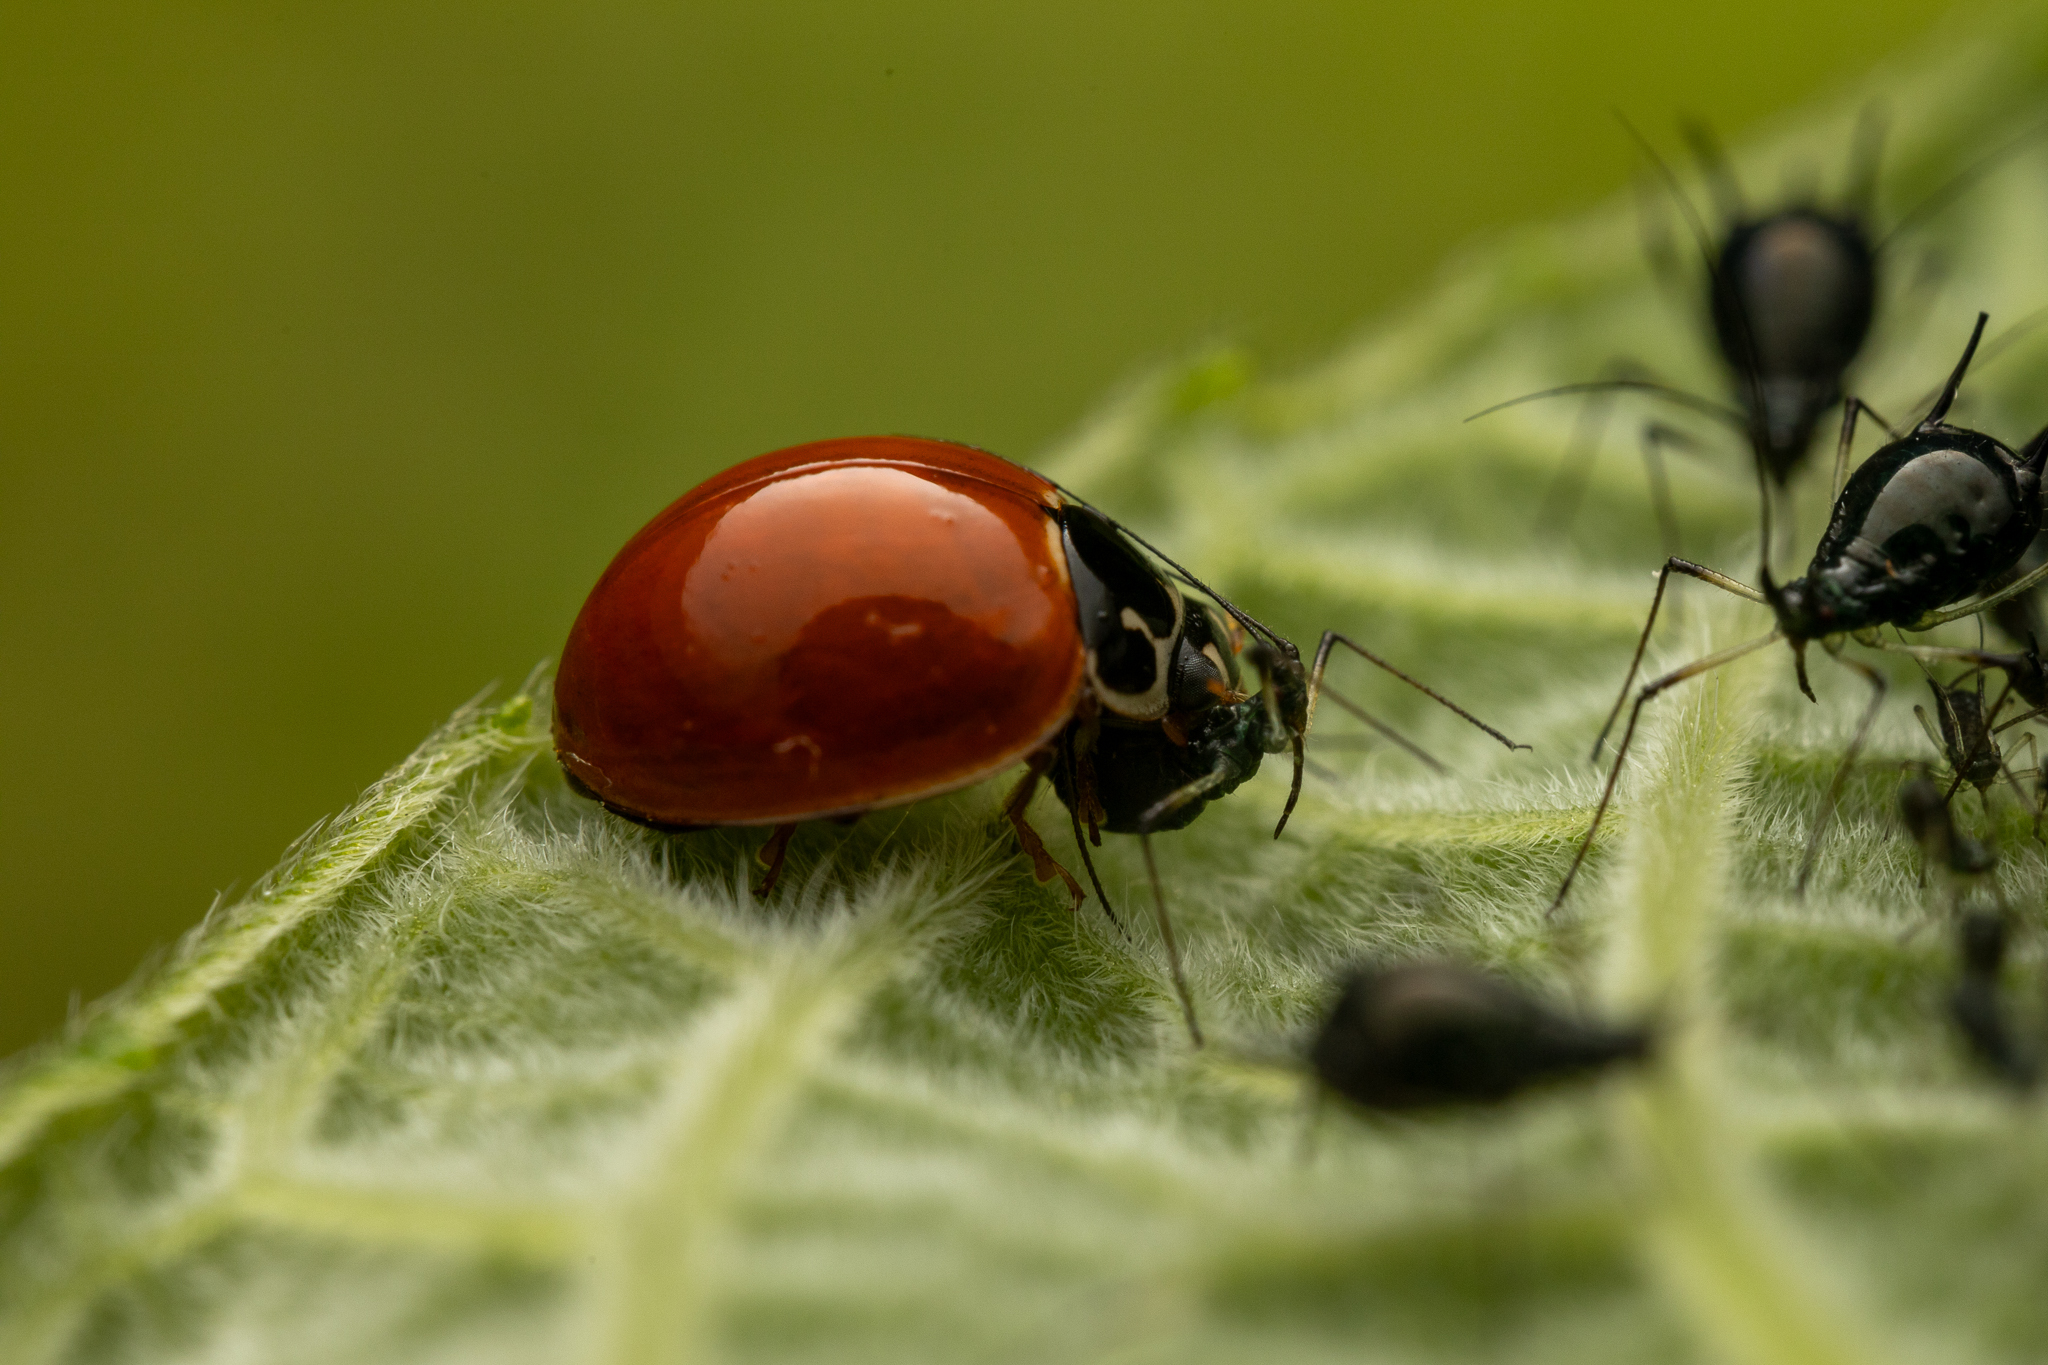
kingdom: Animalia
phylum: Arthropoda
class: Insecta
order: Coleoptera
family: Coccinellidae
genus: Cycloneda
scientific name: Cycloneda munda
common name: Polished lady beetle
